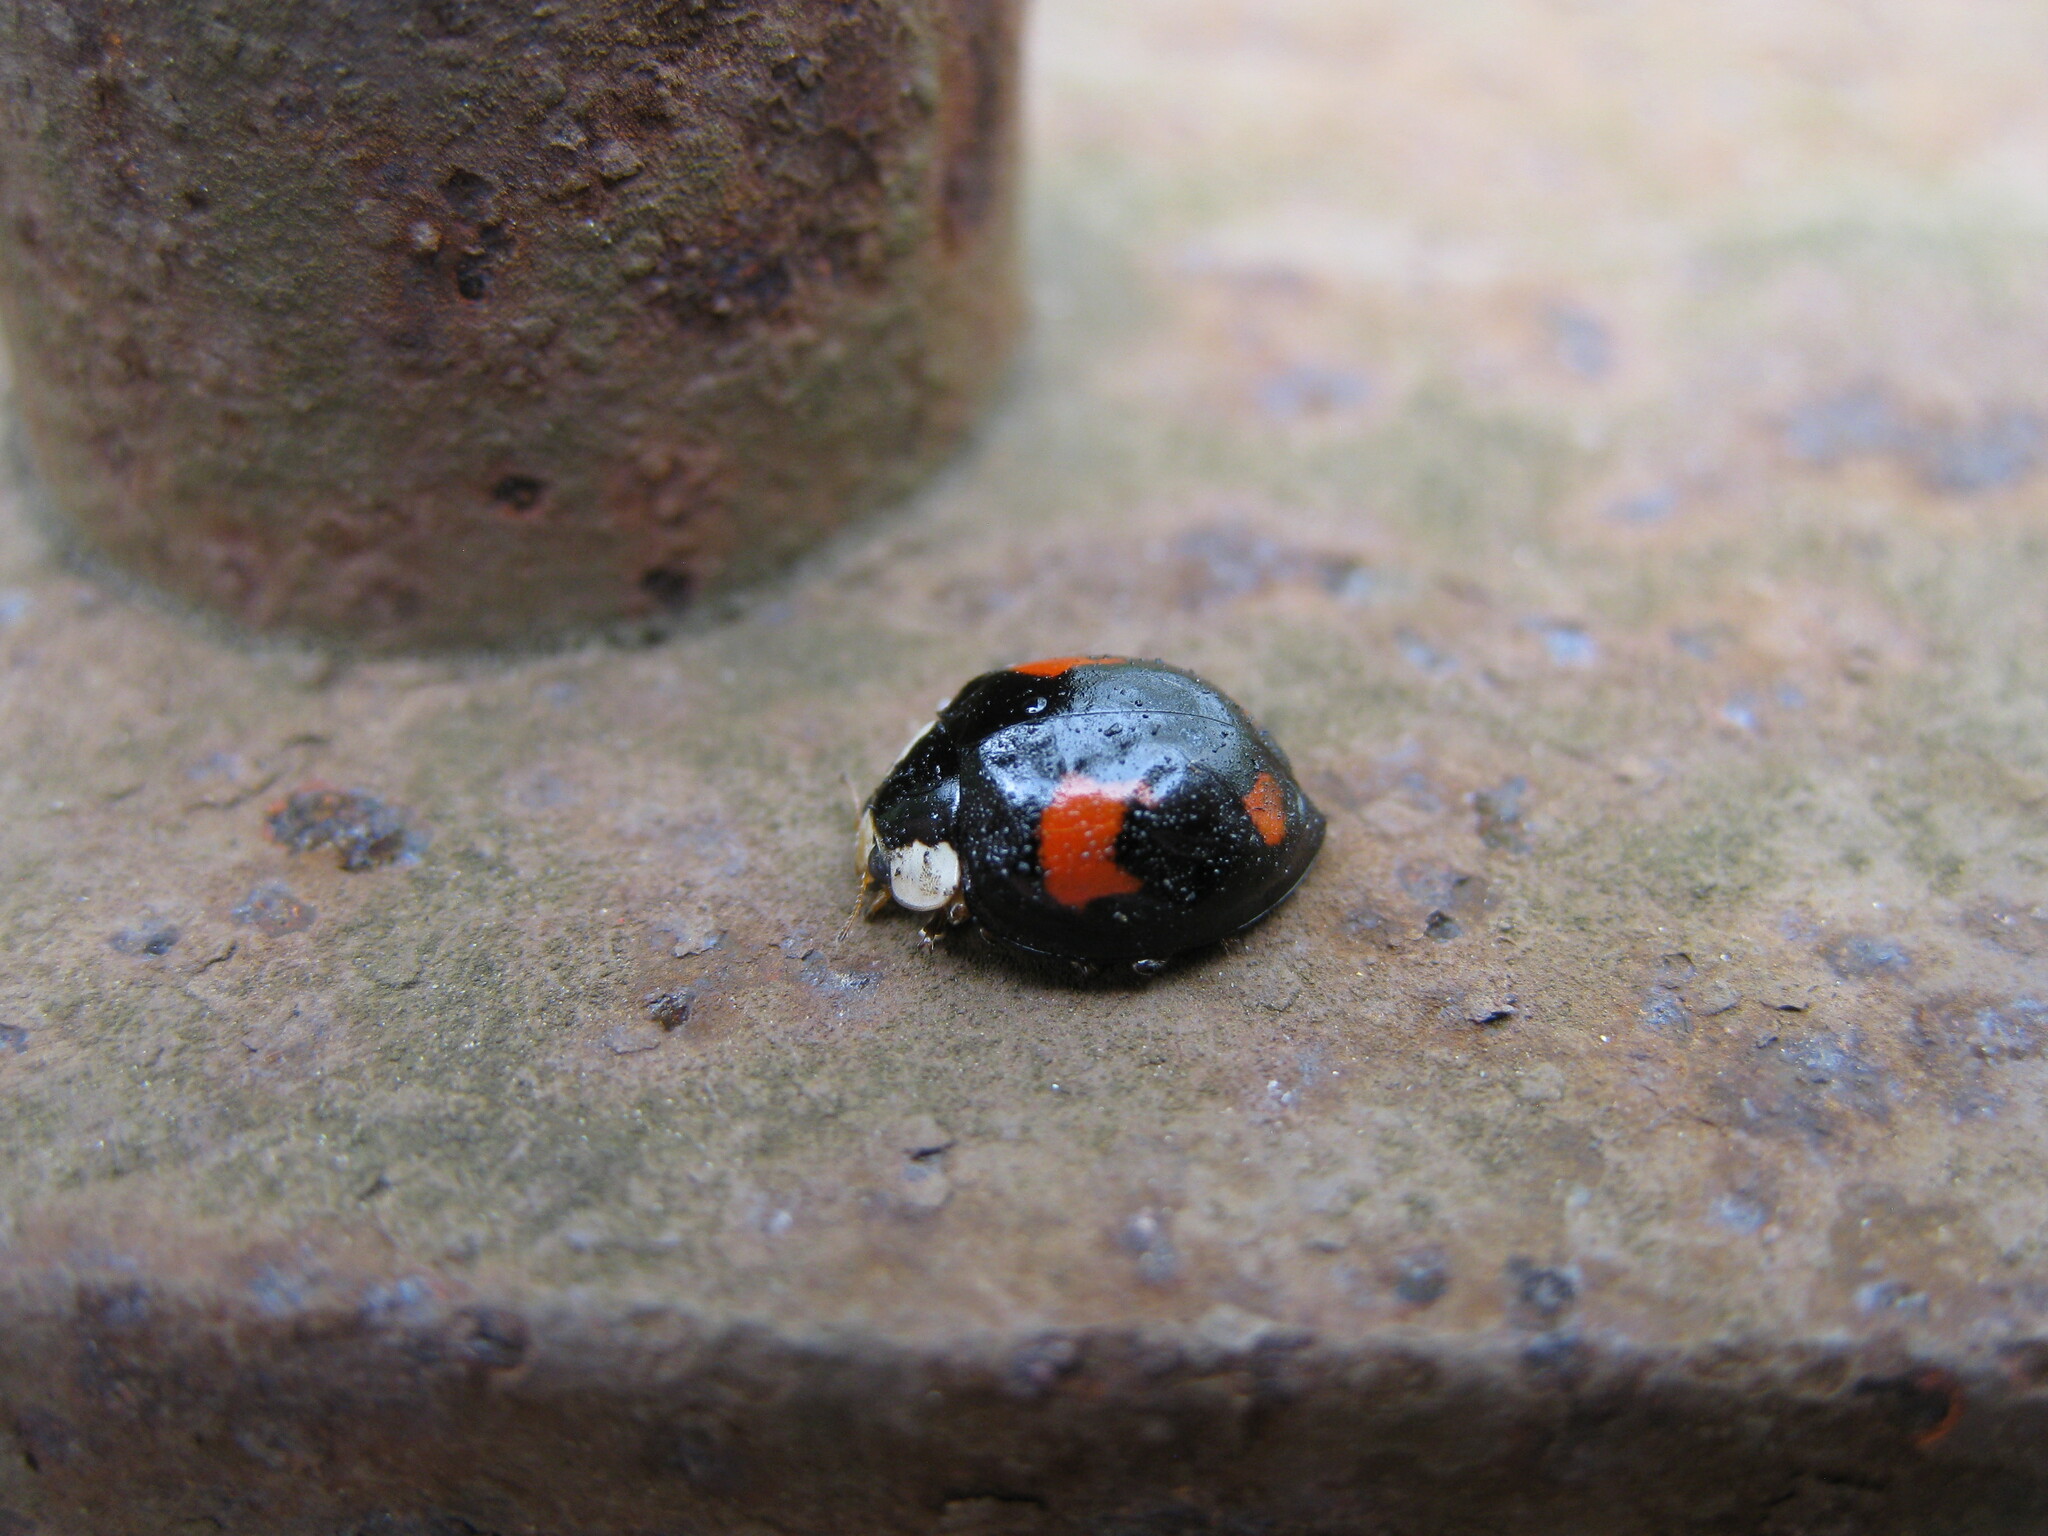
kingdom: Animalia
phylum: Arthropoda
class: Insecta
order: Coleoptera
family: Coccinellidae
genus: Harmonia
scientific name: Harmonia axyridis
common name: Harlequin ladybird
